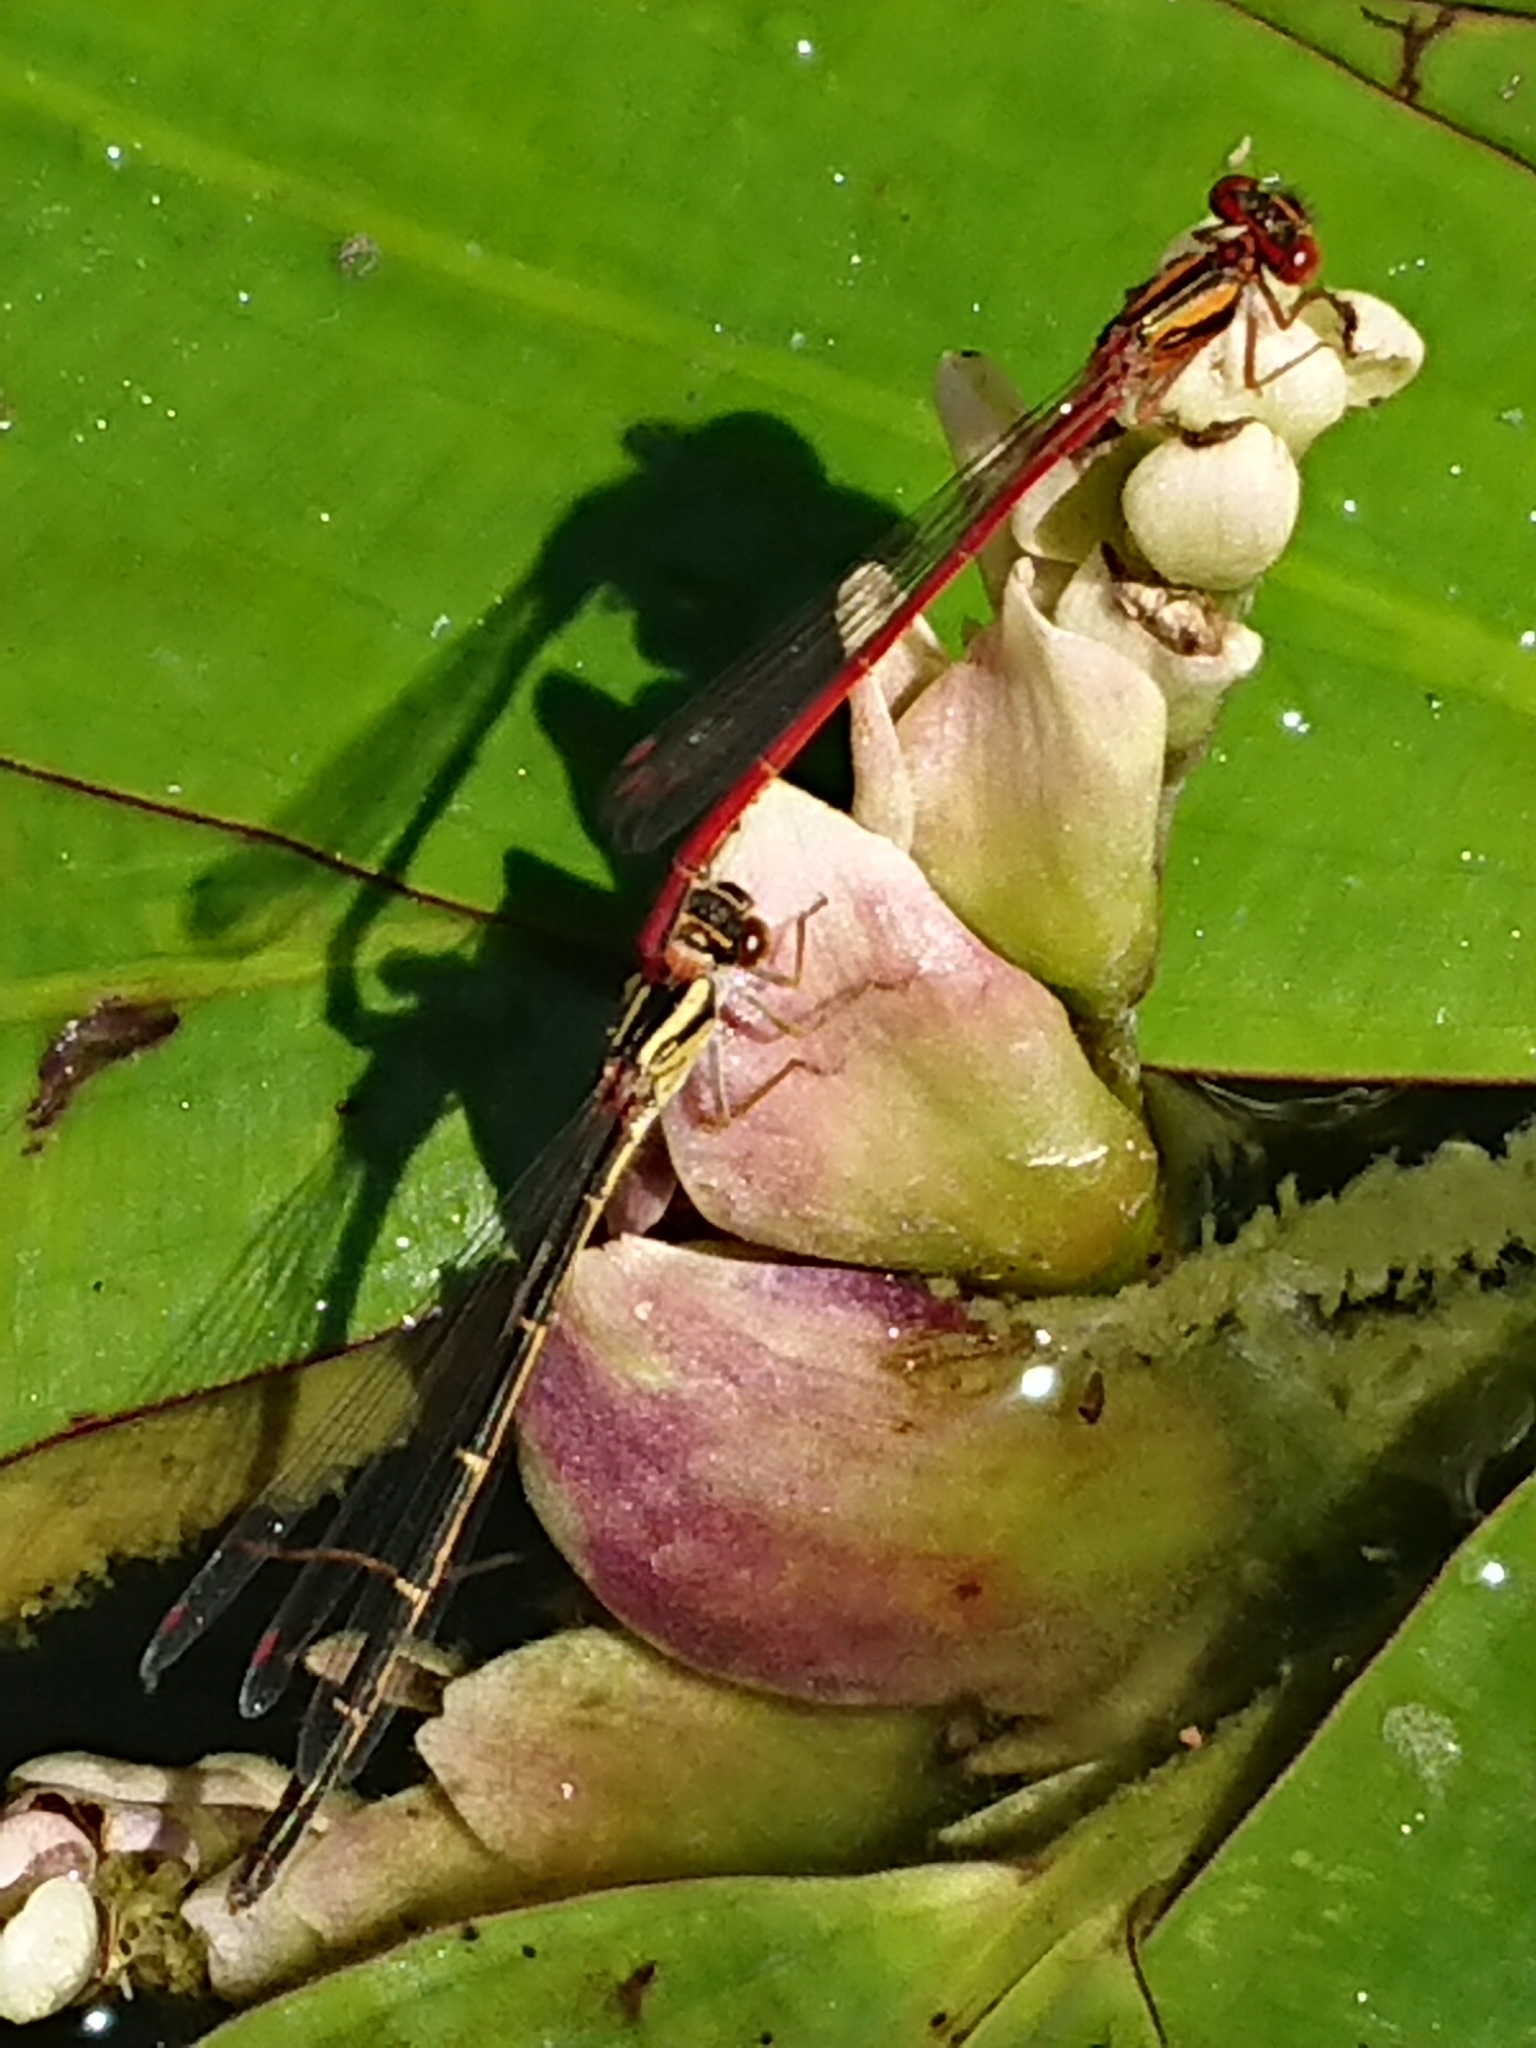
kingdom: Animalia
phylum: Arthropoda
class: Insecta
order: Odonata
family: Coenagrionidae
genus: Xanthocnemis
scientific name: Xanthocnemis zealandica
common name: Common redcoat damselfly
